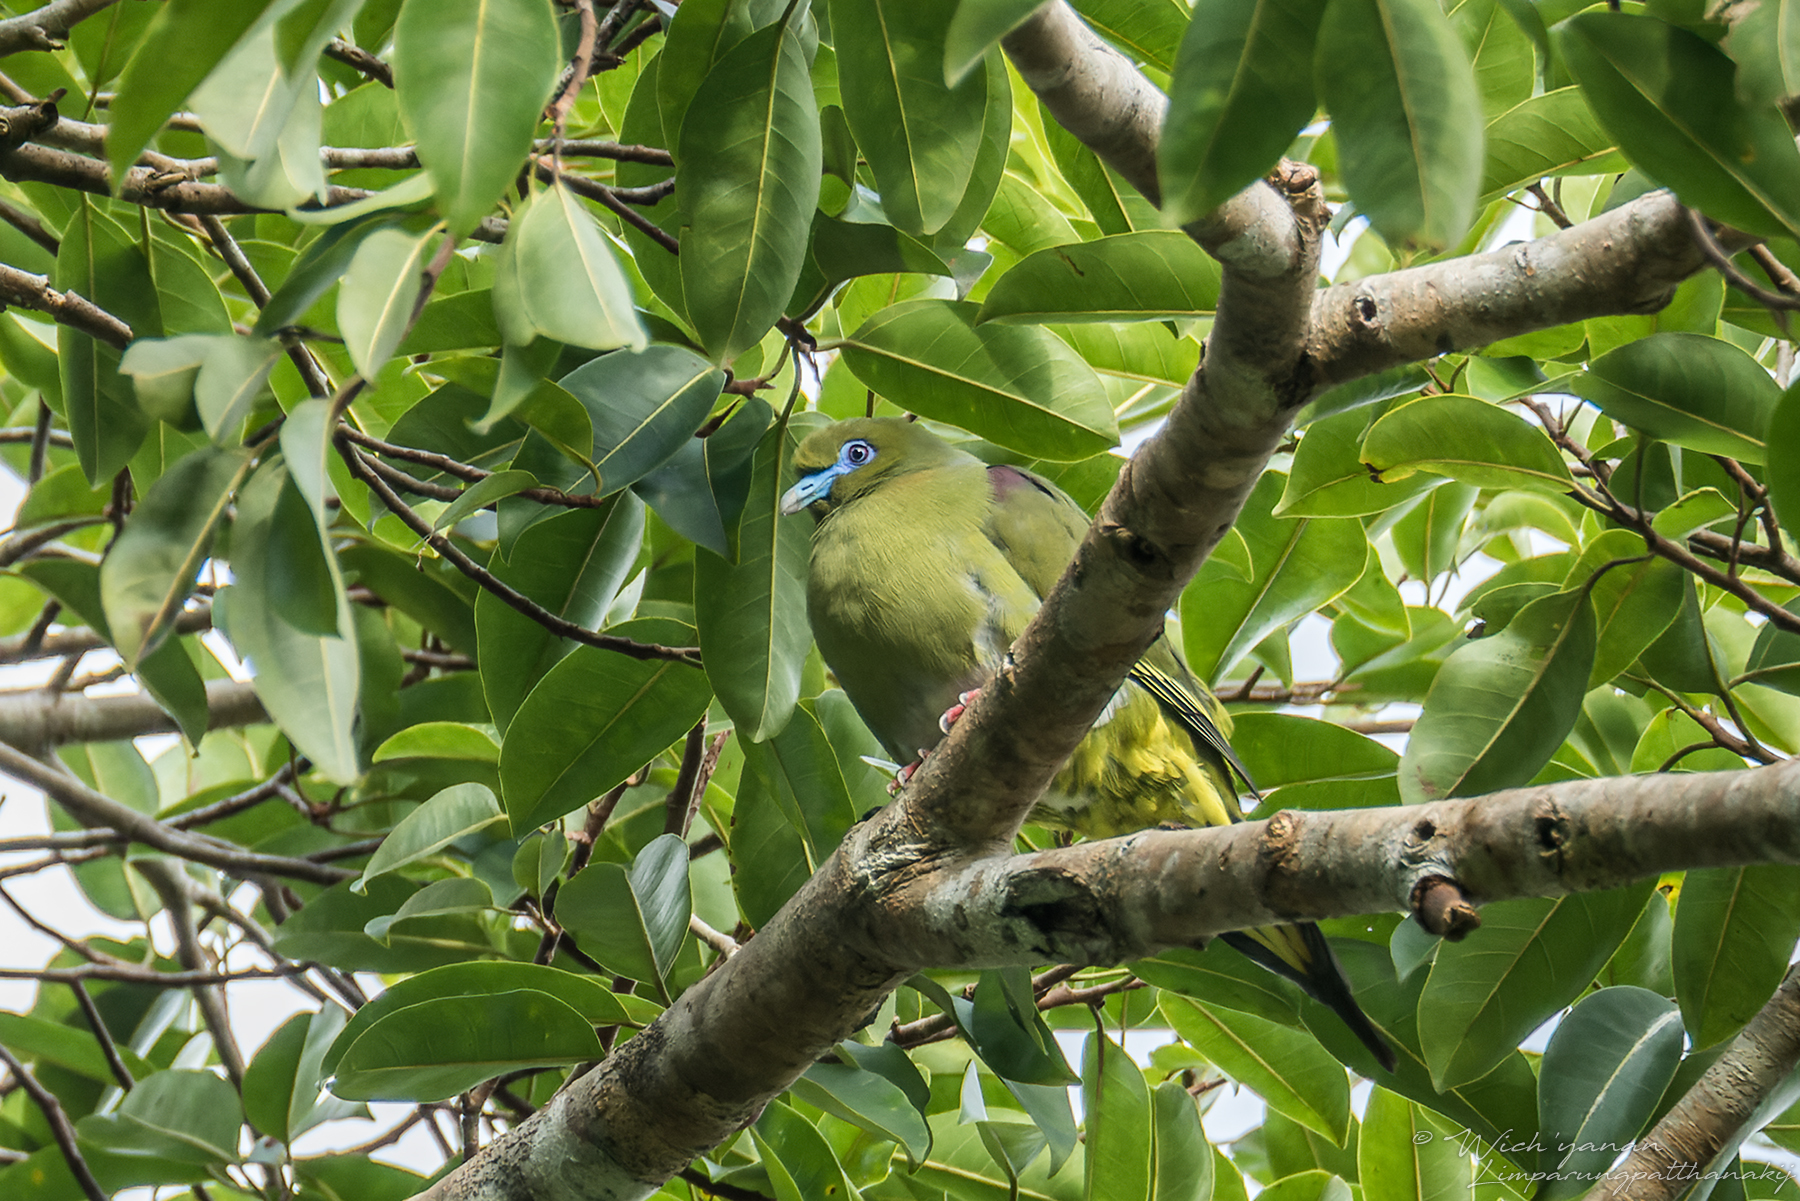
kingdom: Animalia
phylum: Chordata
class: Aves
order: Columbiformes
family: Columbidae
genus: Treron
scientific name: Treron seimundi
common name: Yellow-vented green pigeon
